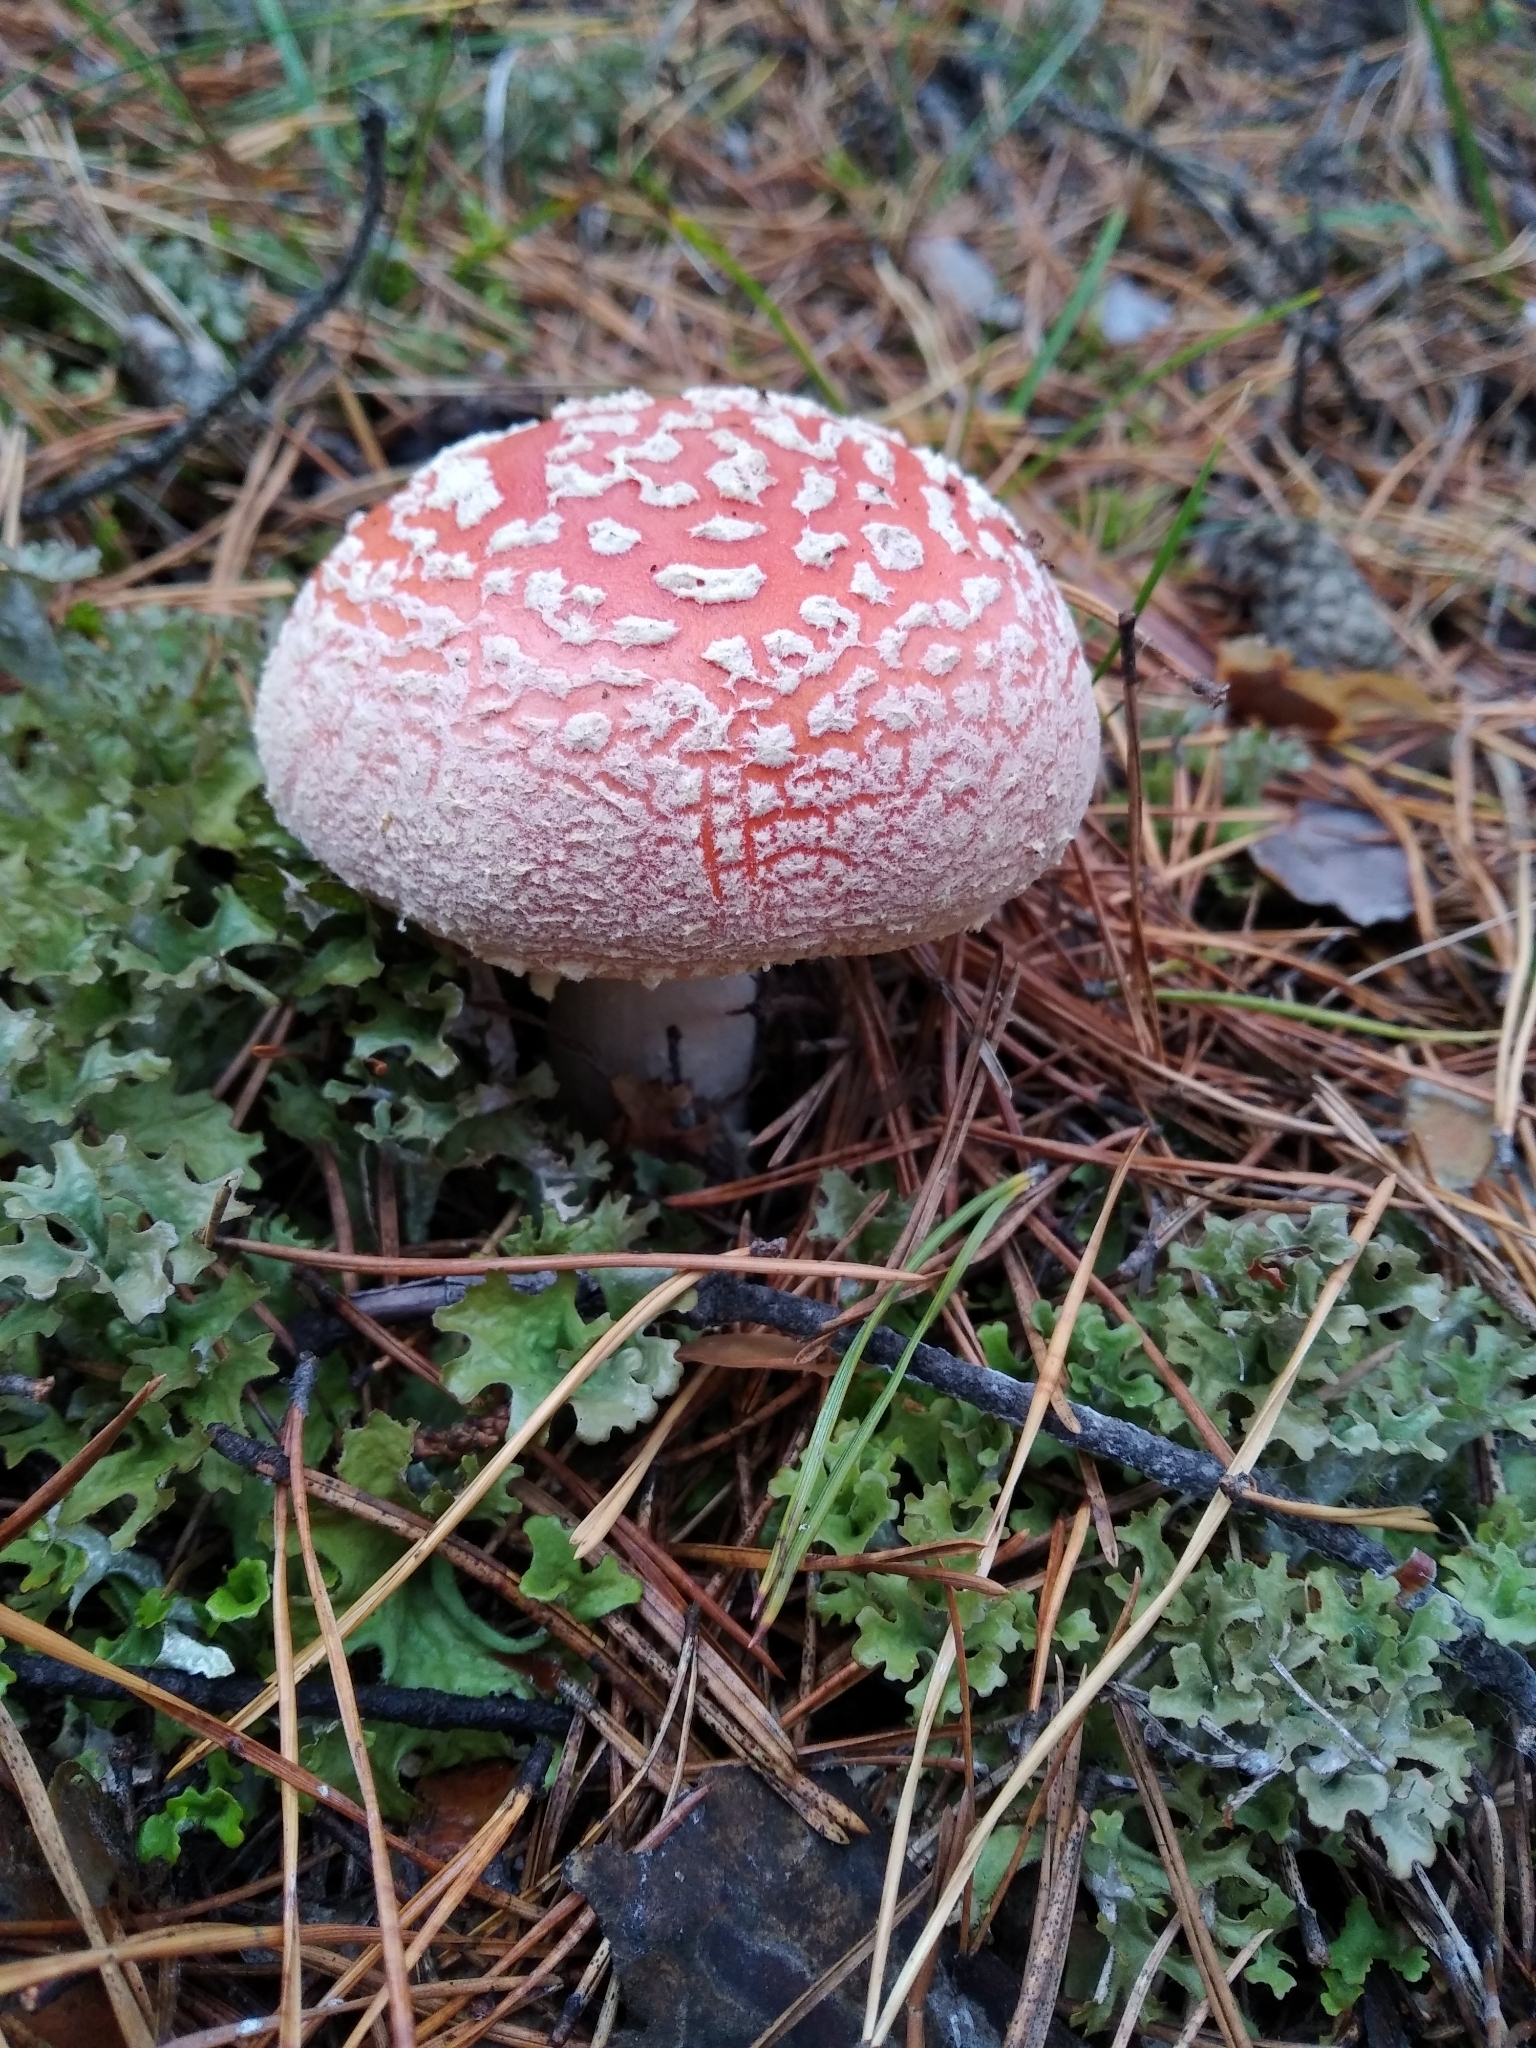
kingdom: Fungi
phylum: Basidiomycota
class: Agaricomycetes
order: Agaricales
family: Amanitaceae
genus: Amanita
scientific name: Amanita muscaria
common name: Fly agaric
